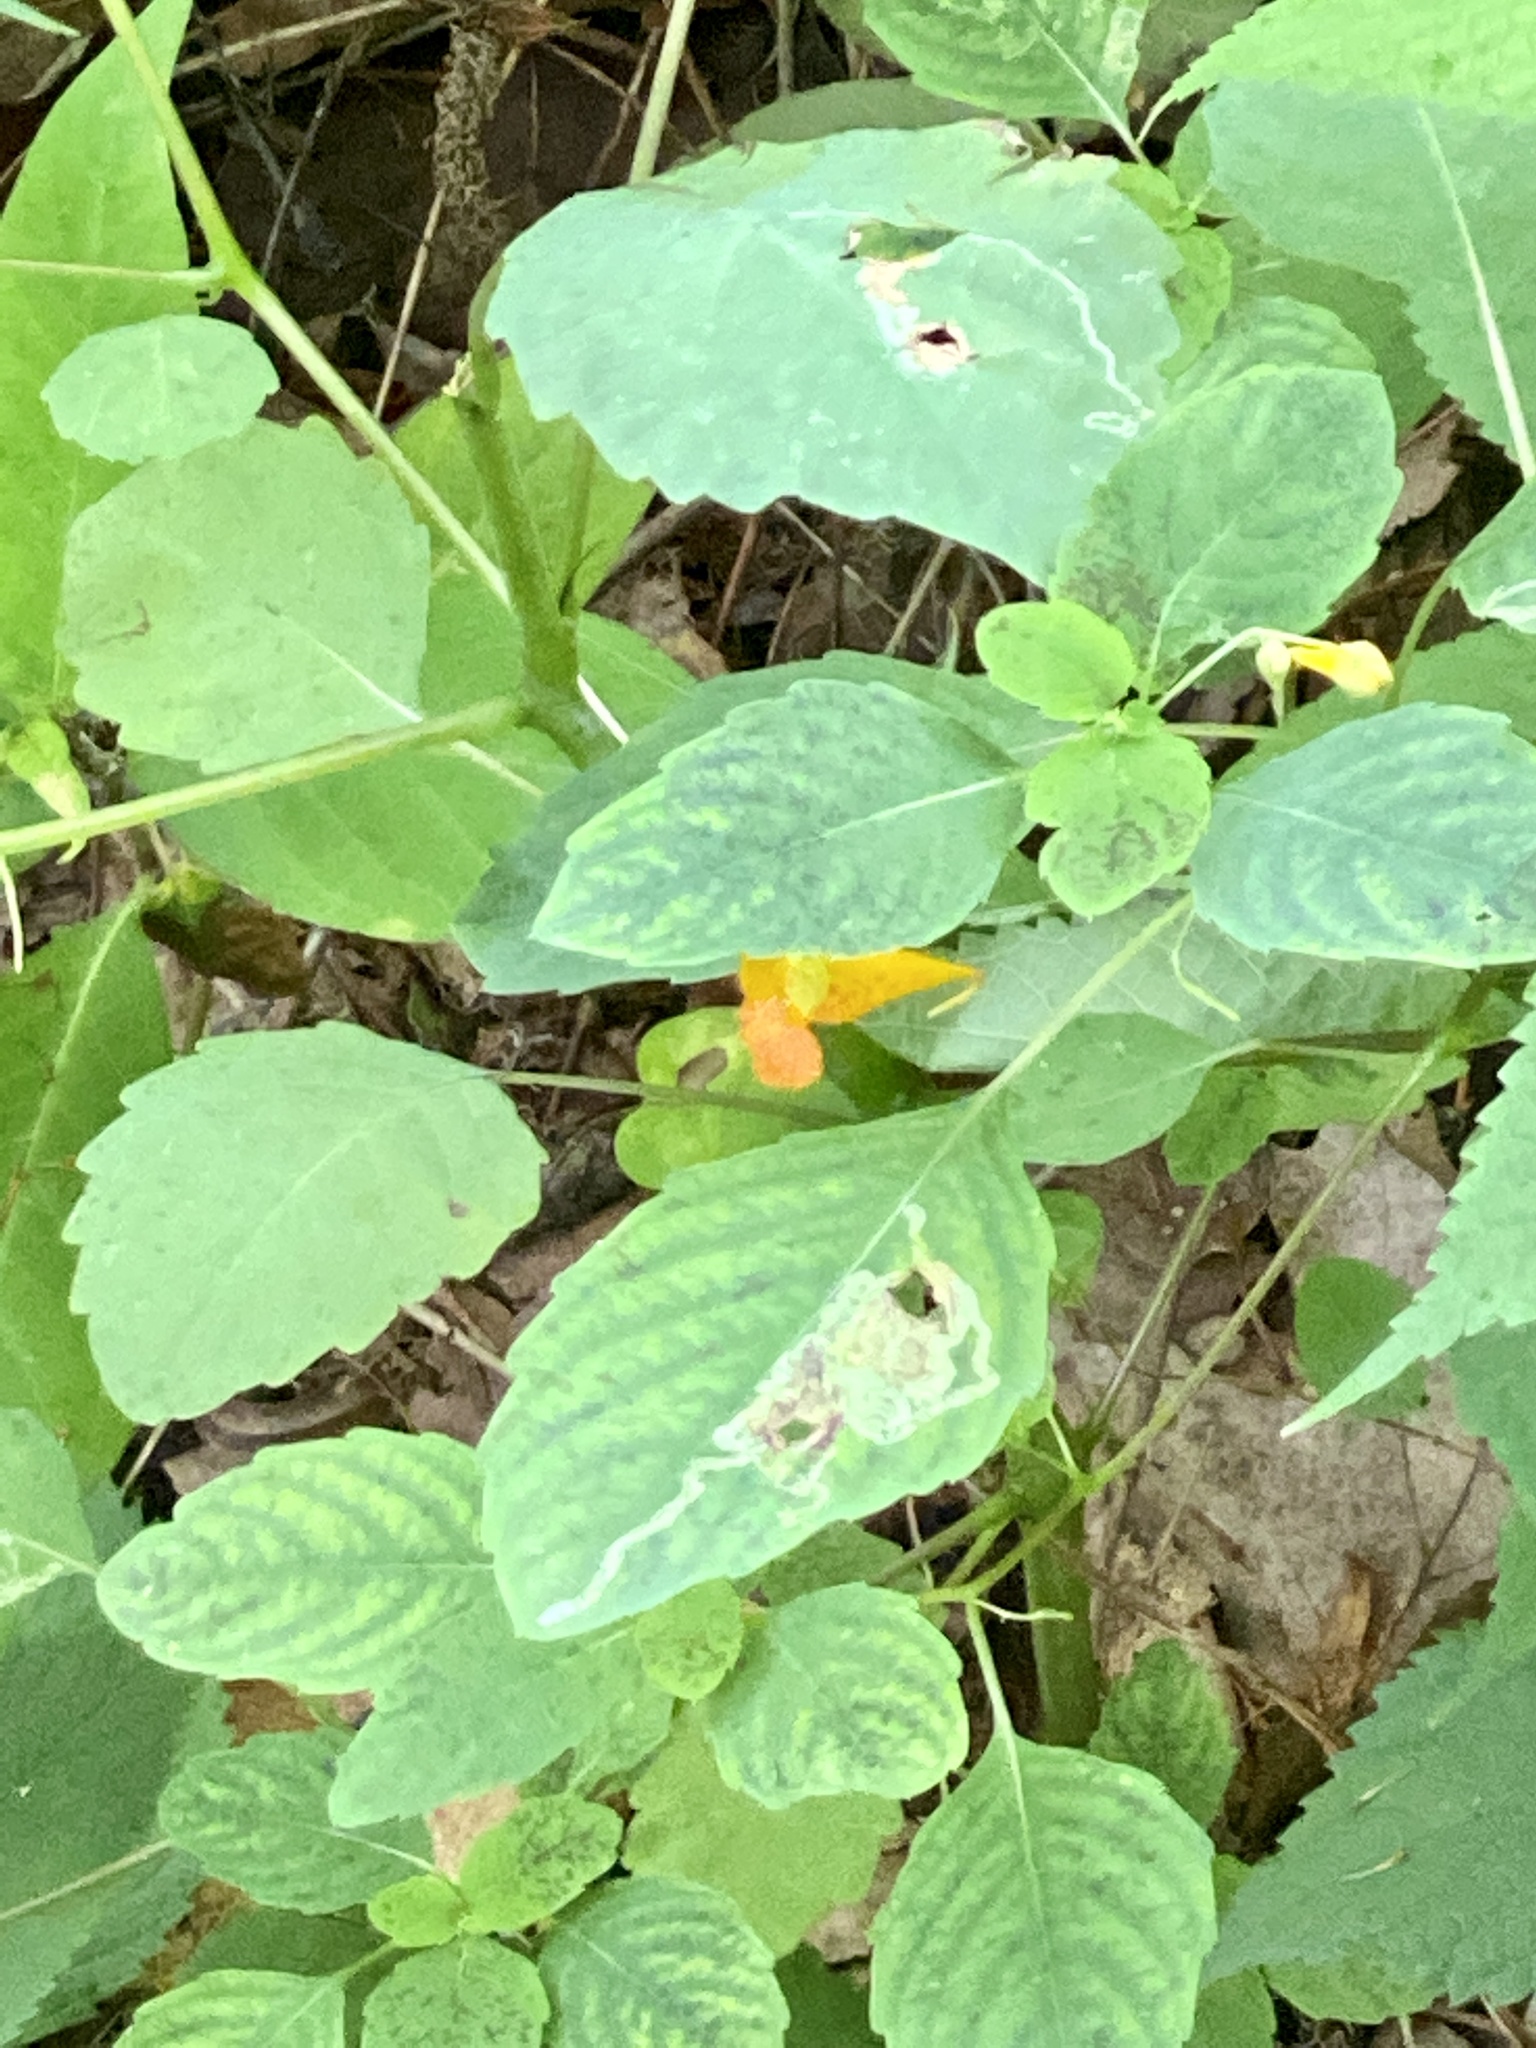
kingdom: Plantae
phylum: Tracheophyta
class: Magnoliopsida
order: Ericales
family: Balsaminaceae
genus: Impatiens
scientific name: Impatiens capensis
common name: Orange balsam
